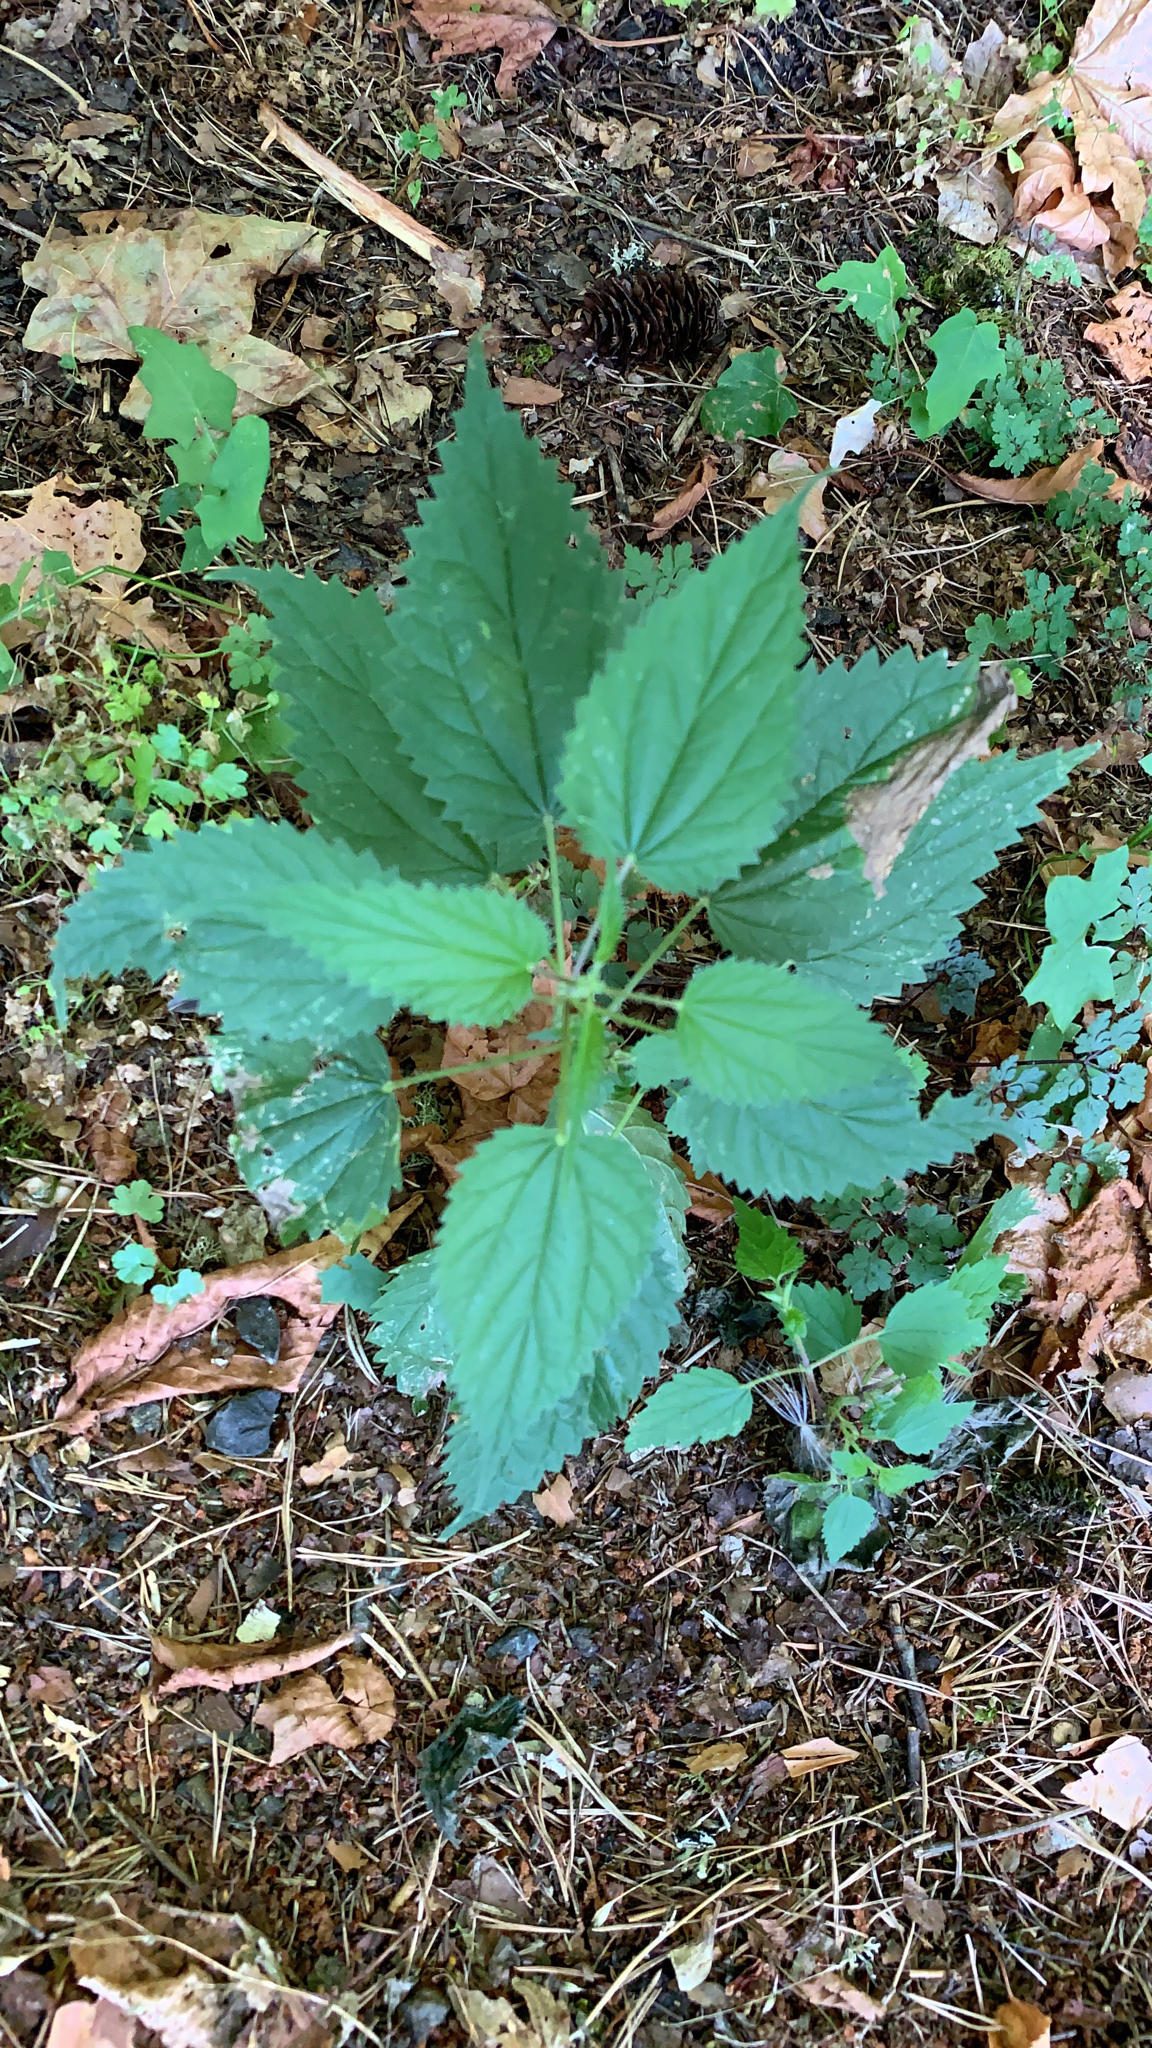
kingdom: Plantae
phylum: Tracheophyta
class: Magnoliopsida
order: Rosales
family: Urticaceae
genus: Urtica
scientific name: Urtica dioica
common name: Common nettle
